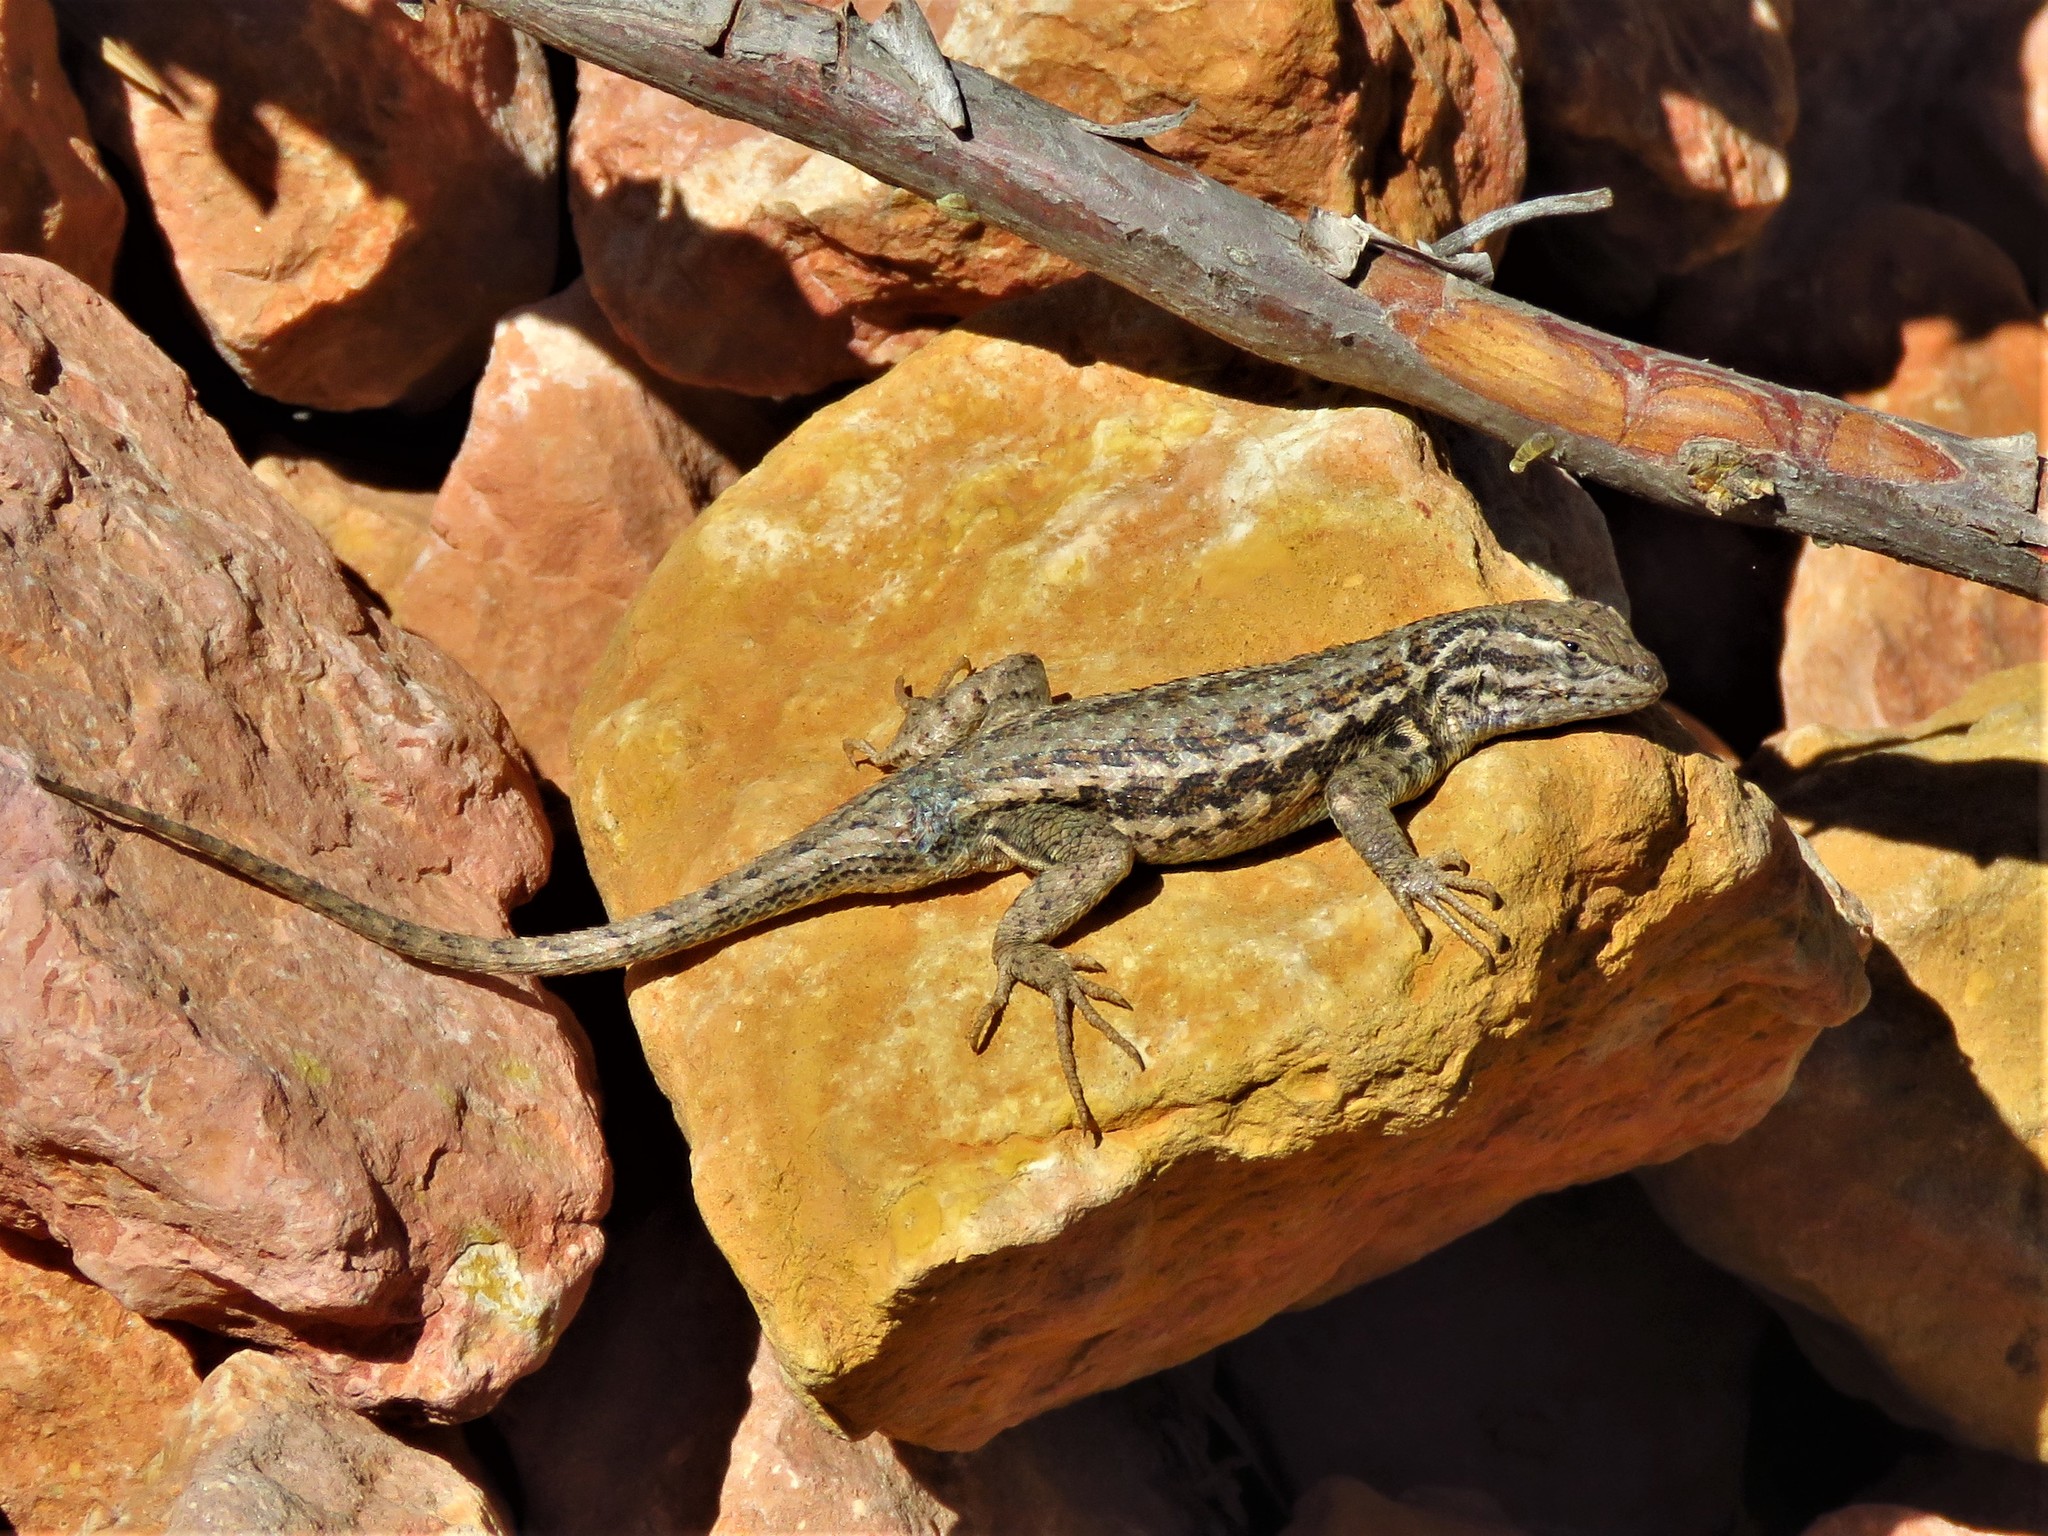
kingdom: Animalia
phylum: Chordata
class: Squamata
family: Phrynosomatidae
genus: Sceloporus
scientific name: Sceloporus graciosus
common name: Sagebrush lizard
